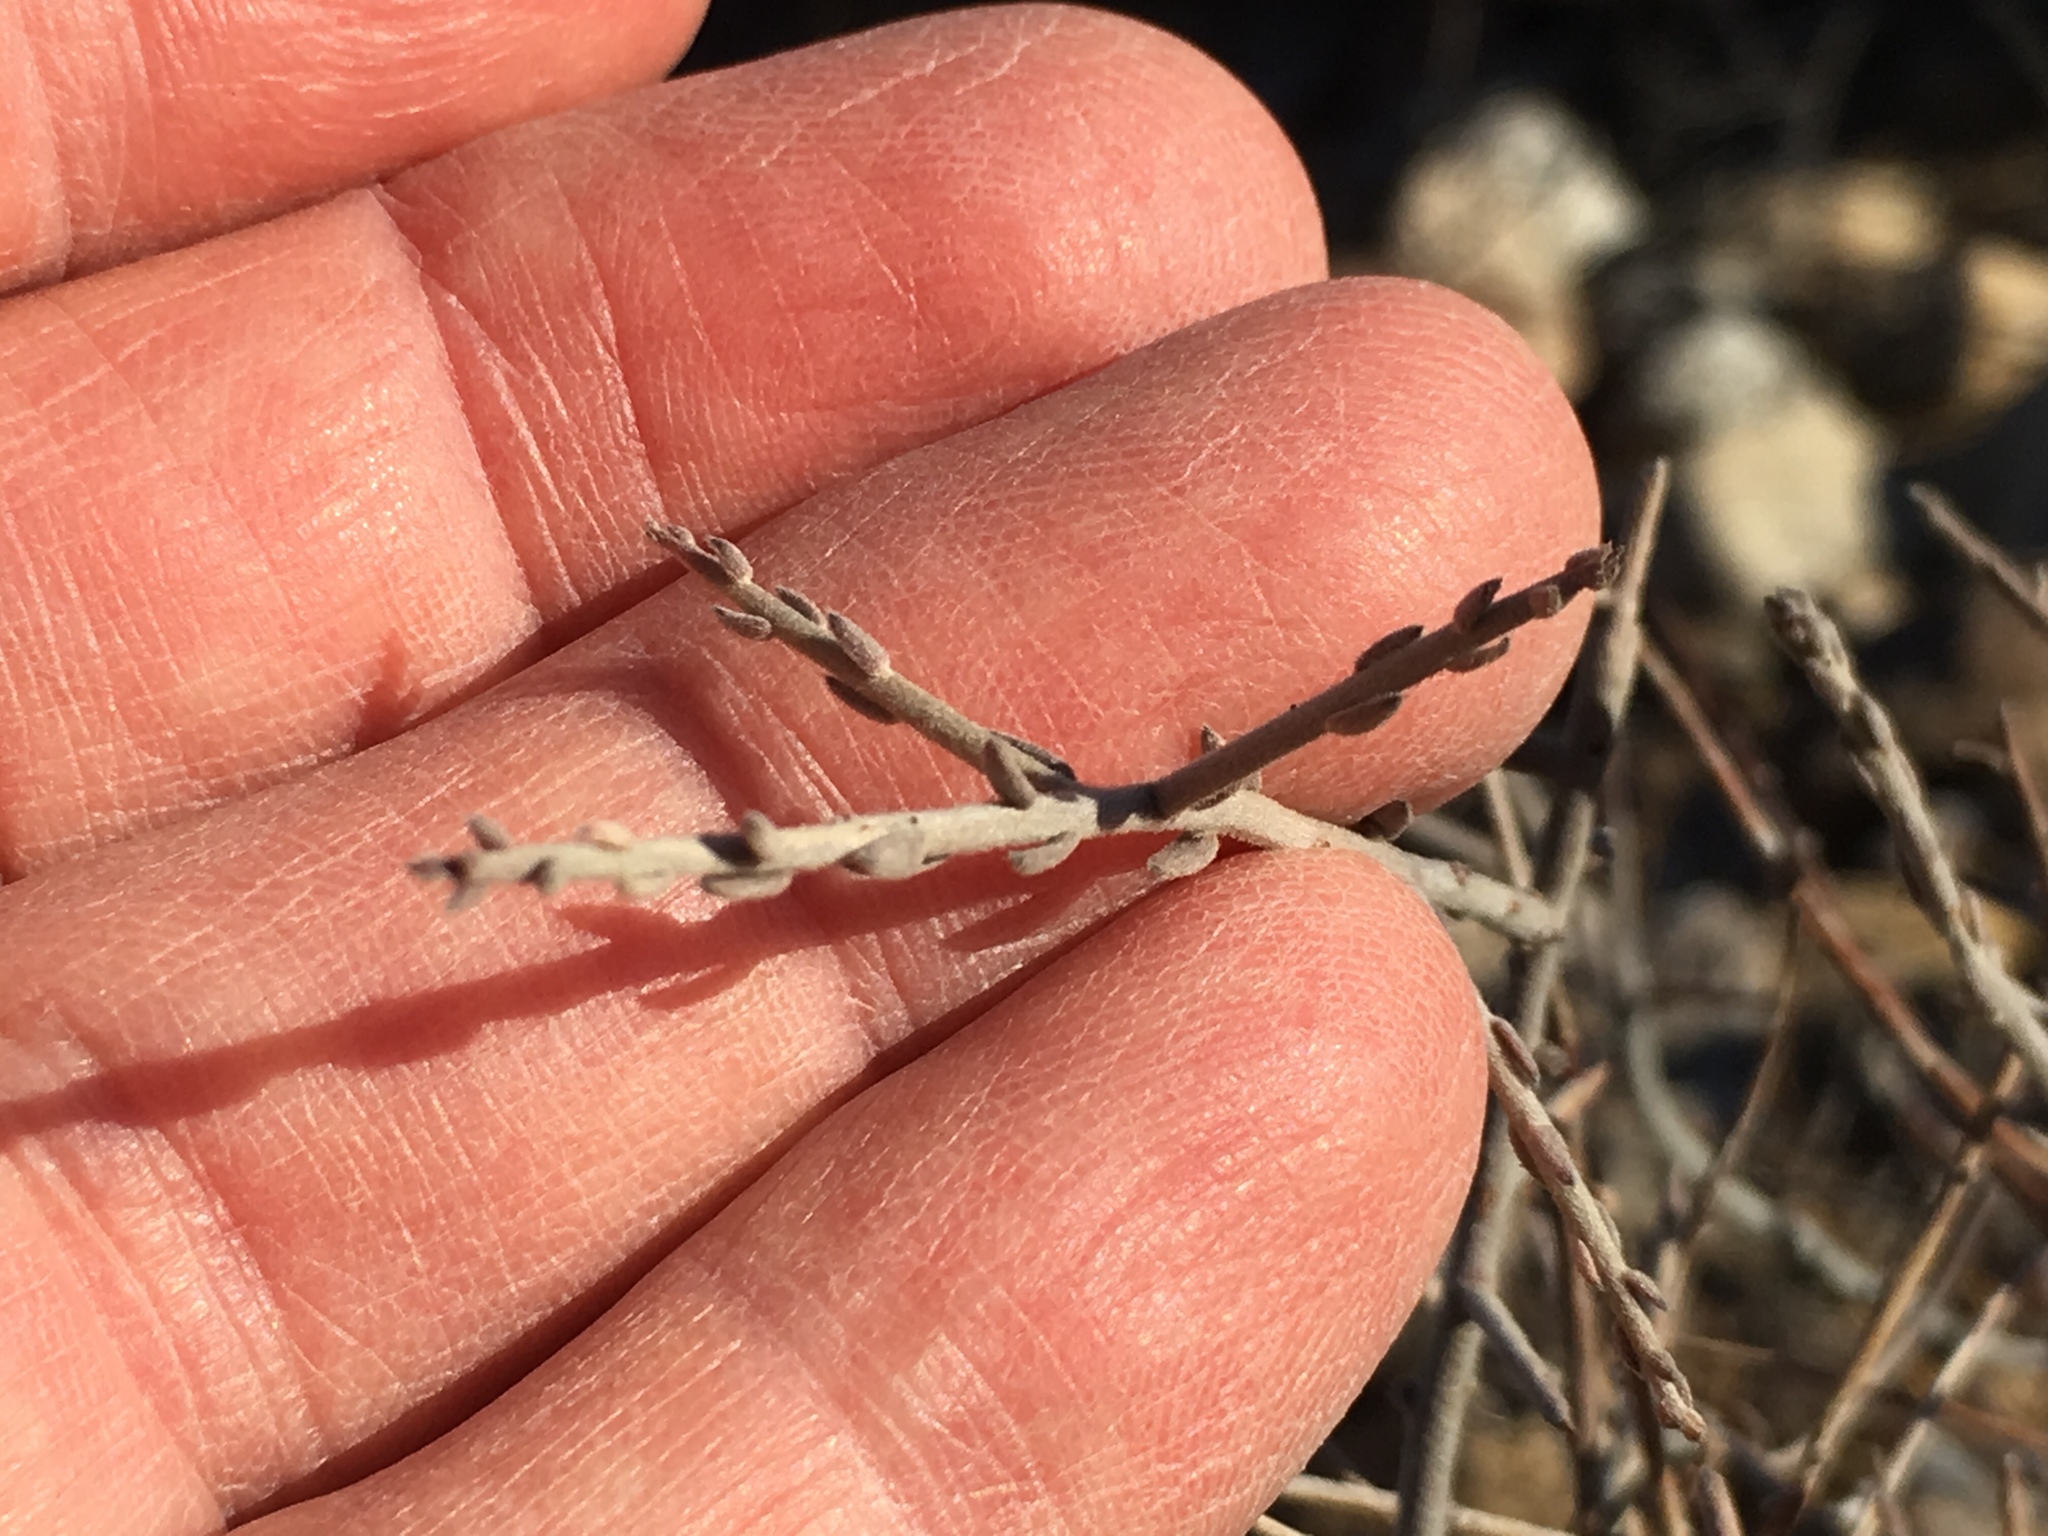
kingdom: Plantae
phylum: Tracheophyta
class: Magnoliopsida
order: Zygophyllales
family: Krameriaceae
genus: Krameria
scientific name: Krameria bicolor
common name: White ratany
